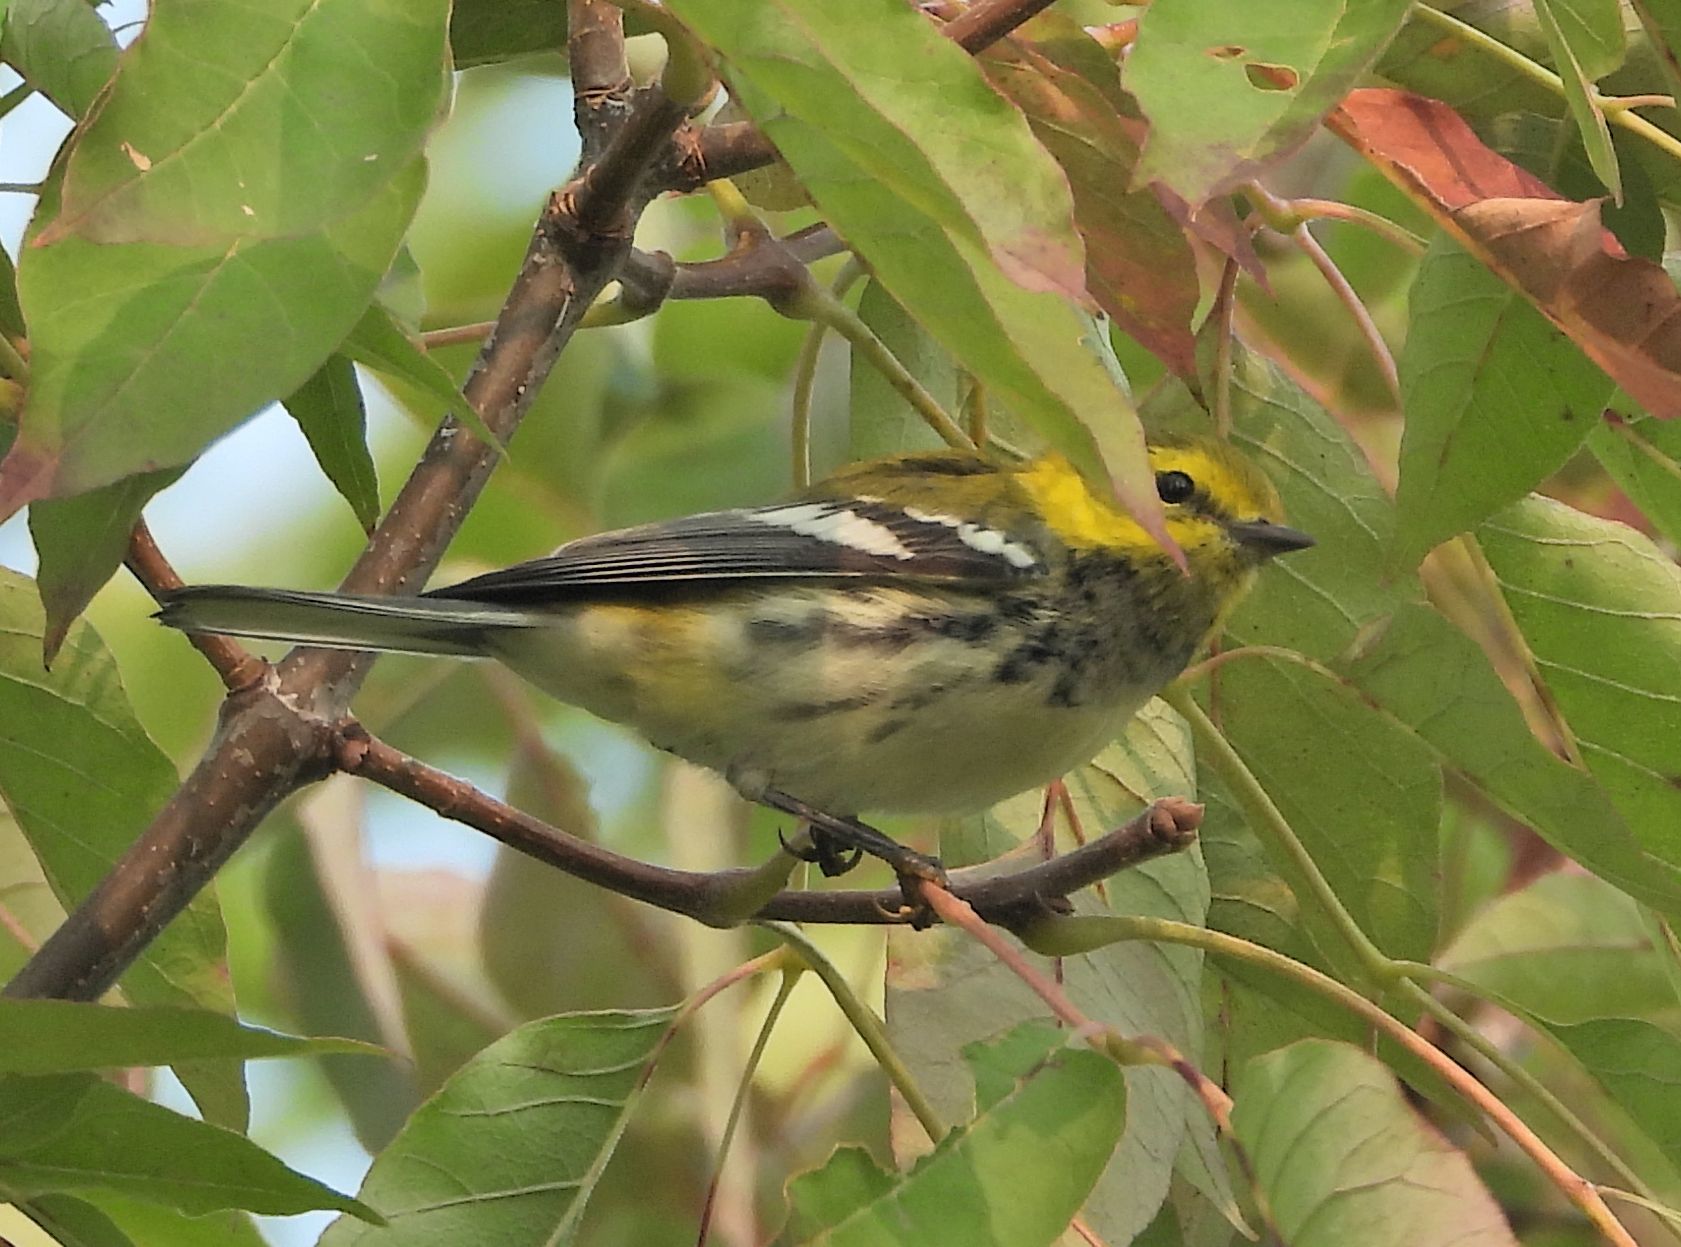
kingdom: Animalia
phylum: Chordata
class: Aves
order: Passeriformes
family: Parulidae
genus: Setophaga
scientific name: Setophaga virens
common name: Black-throated green warbler
